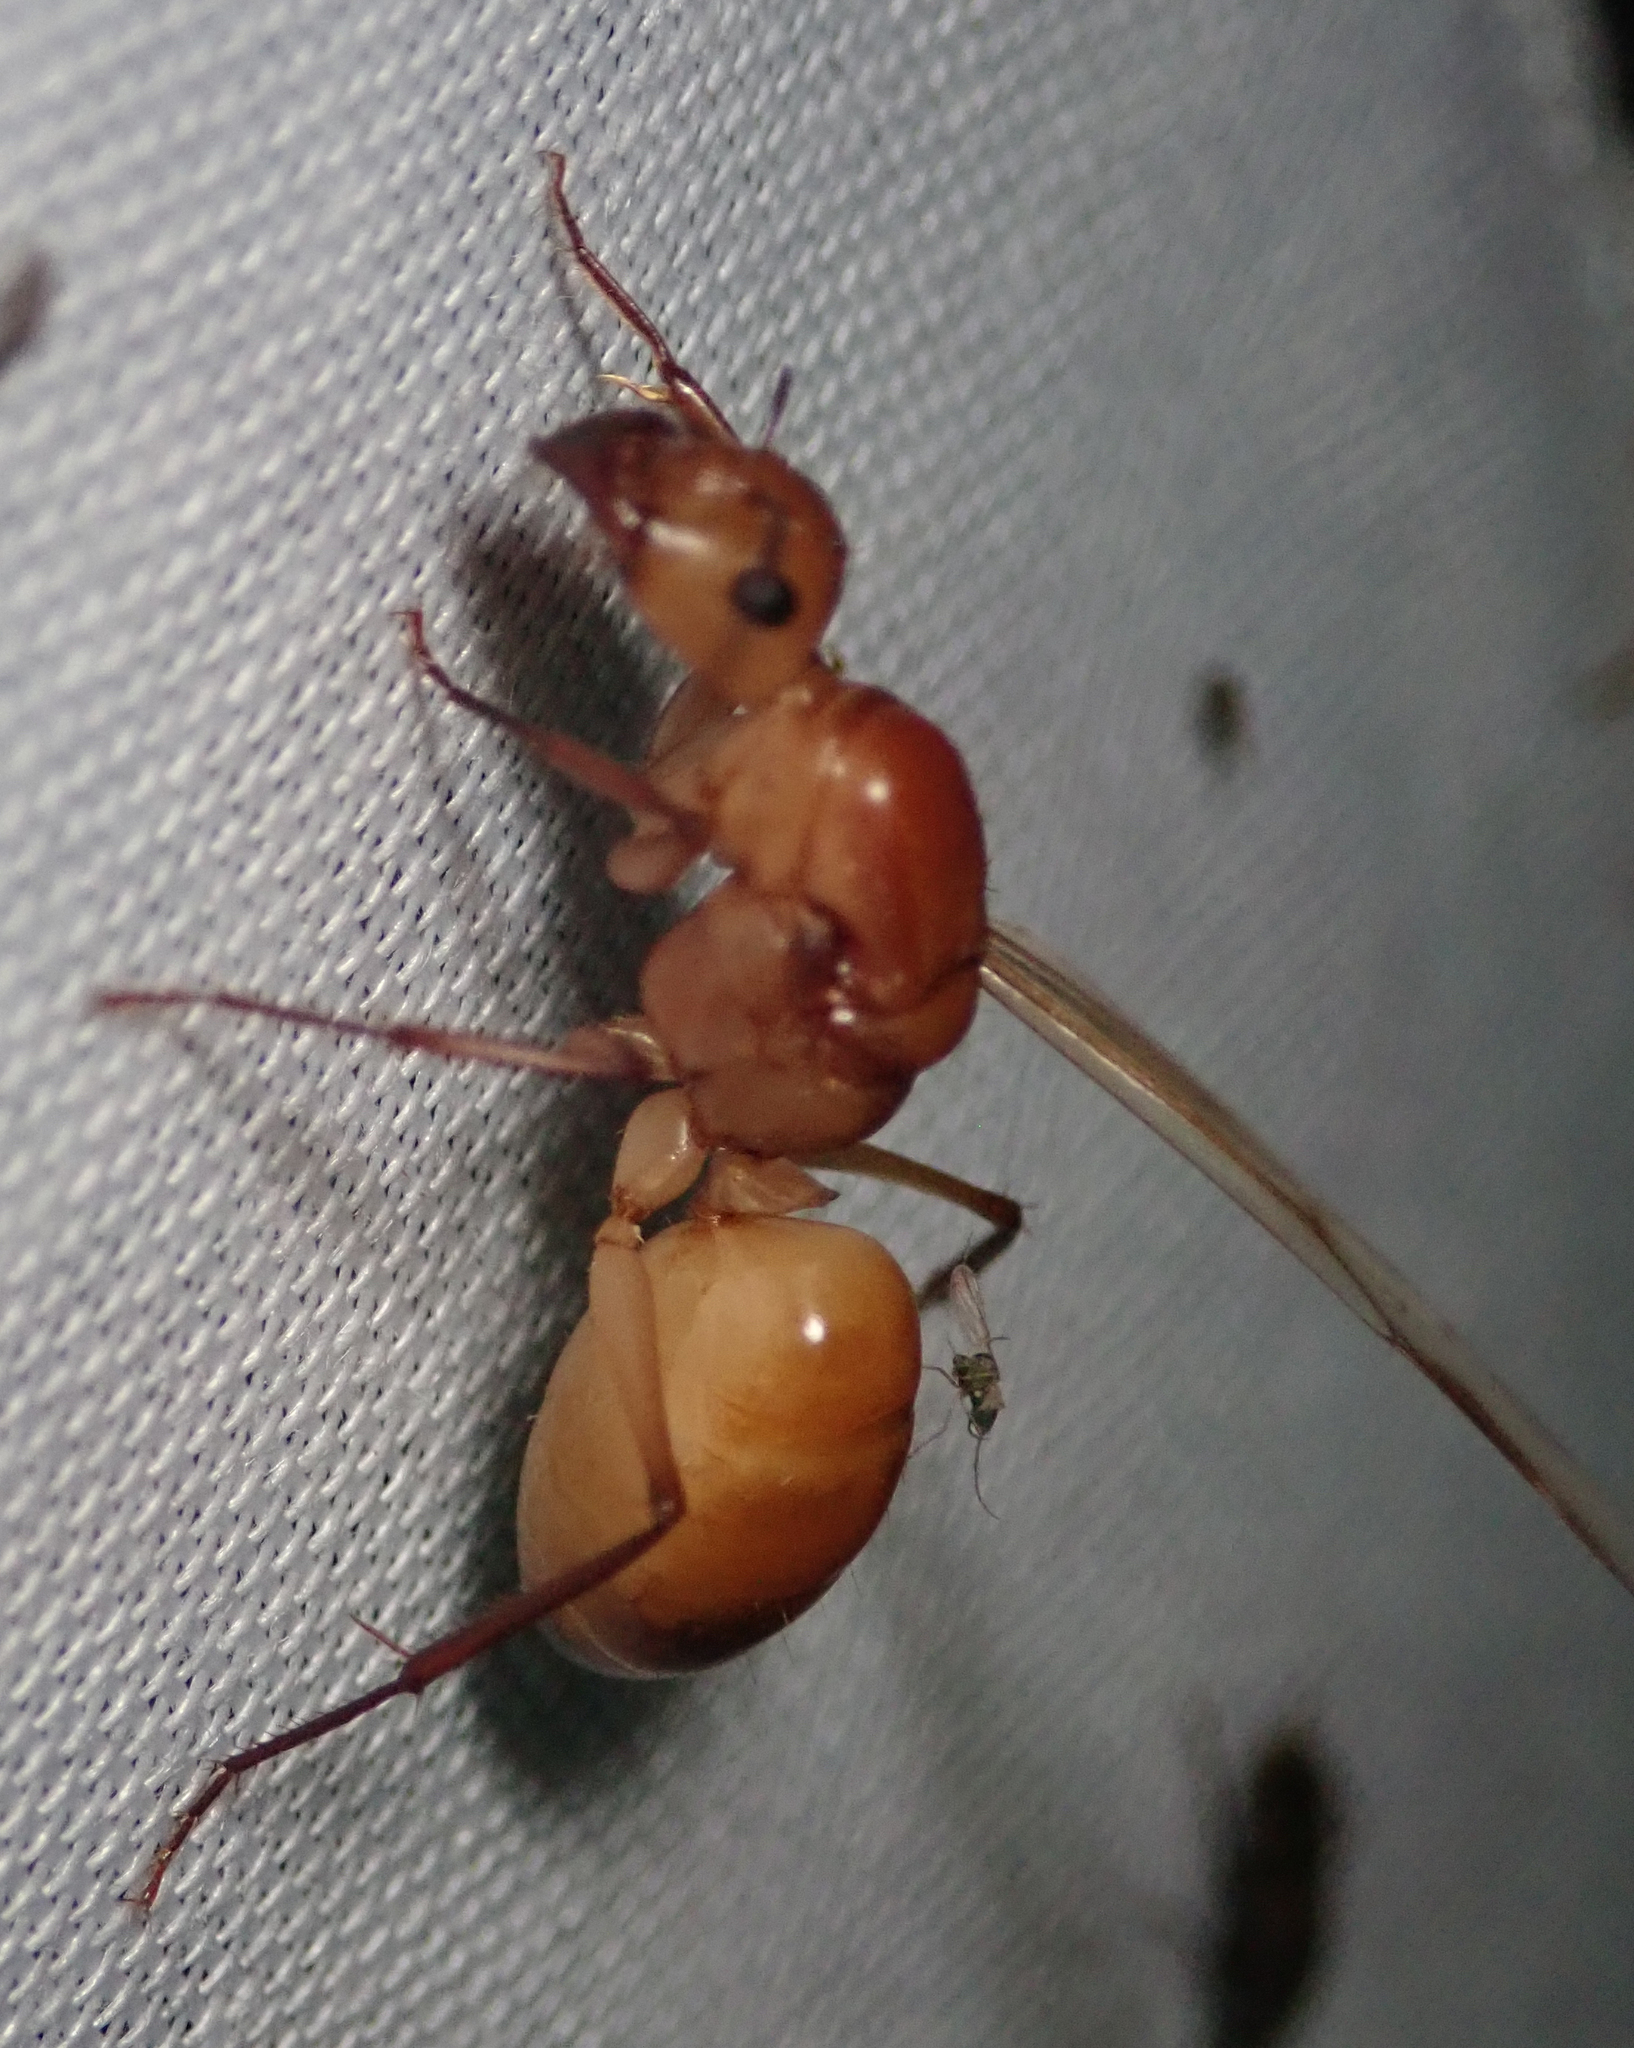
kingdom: Animalia
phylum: Arthropoda
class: Insecta
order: Hymenoptera
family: Formicidae
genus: Camponotus
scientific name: Camponotus mystaceus
